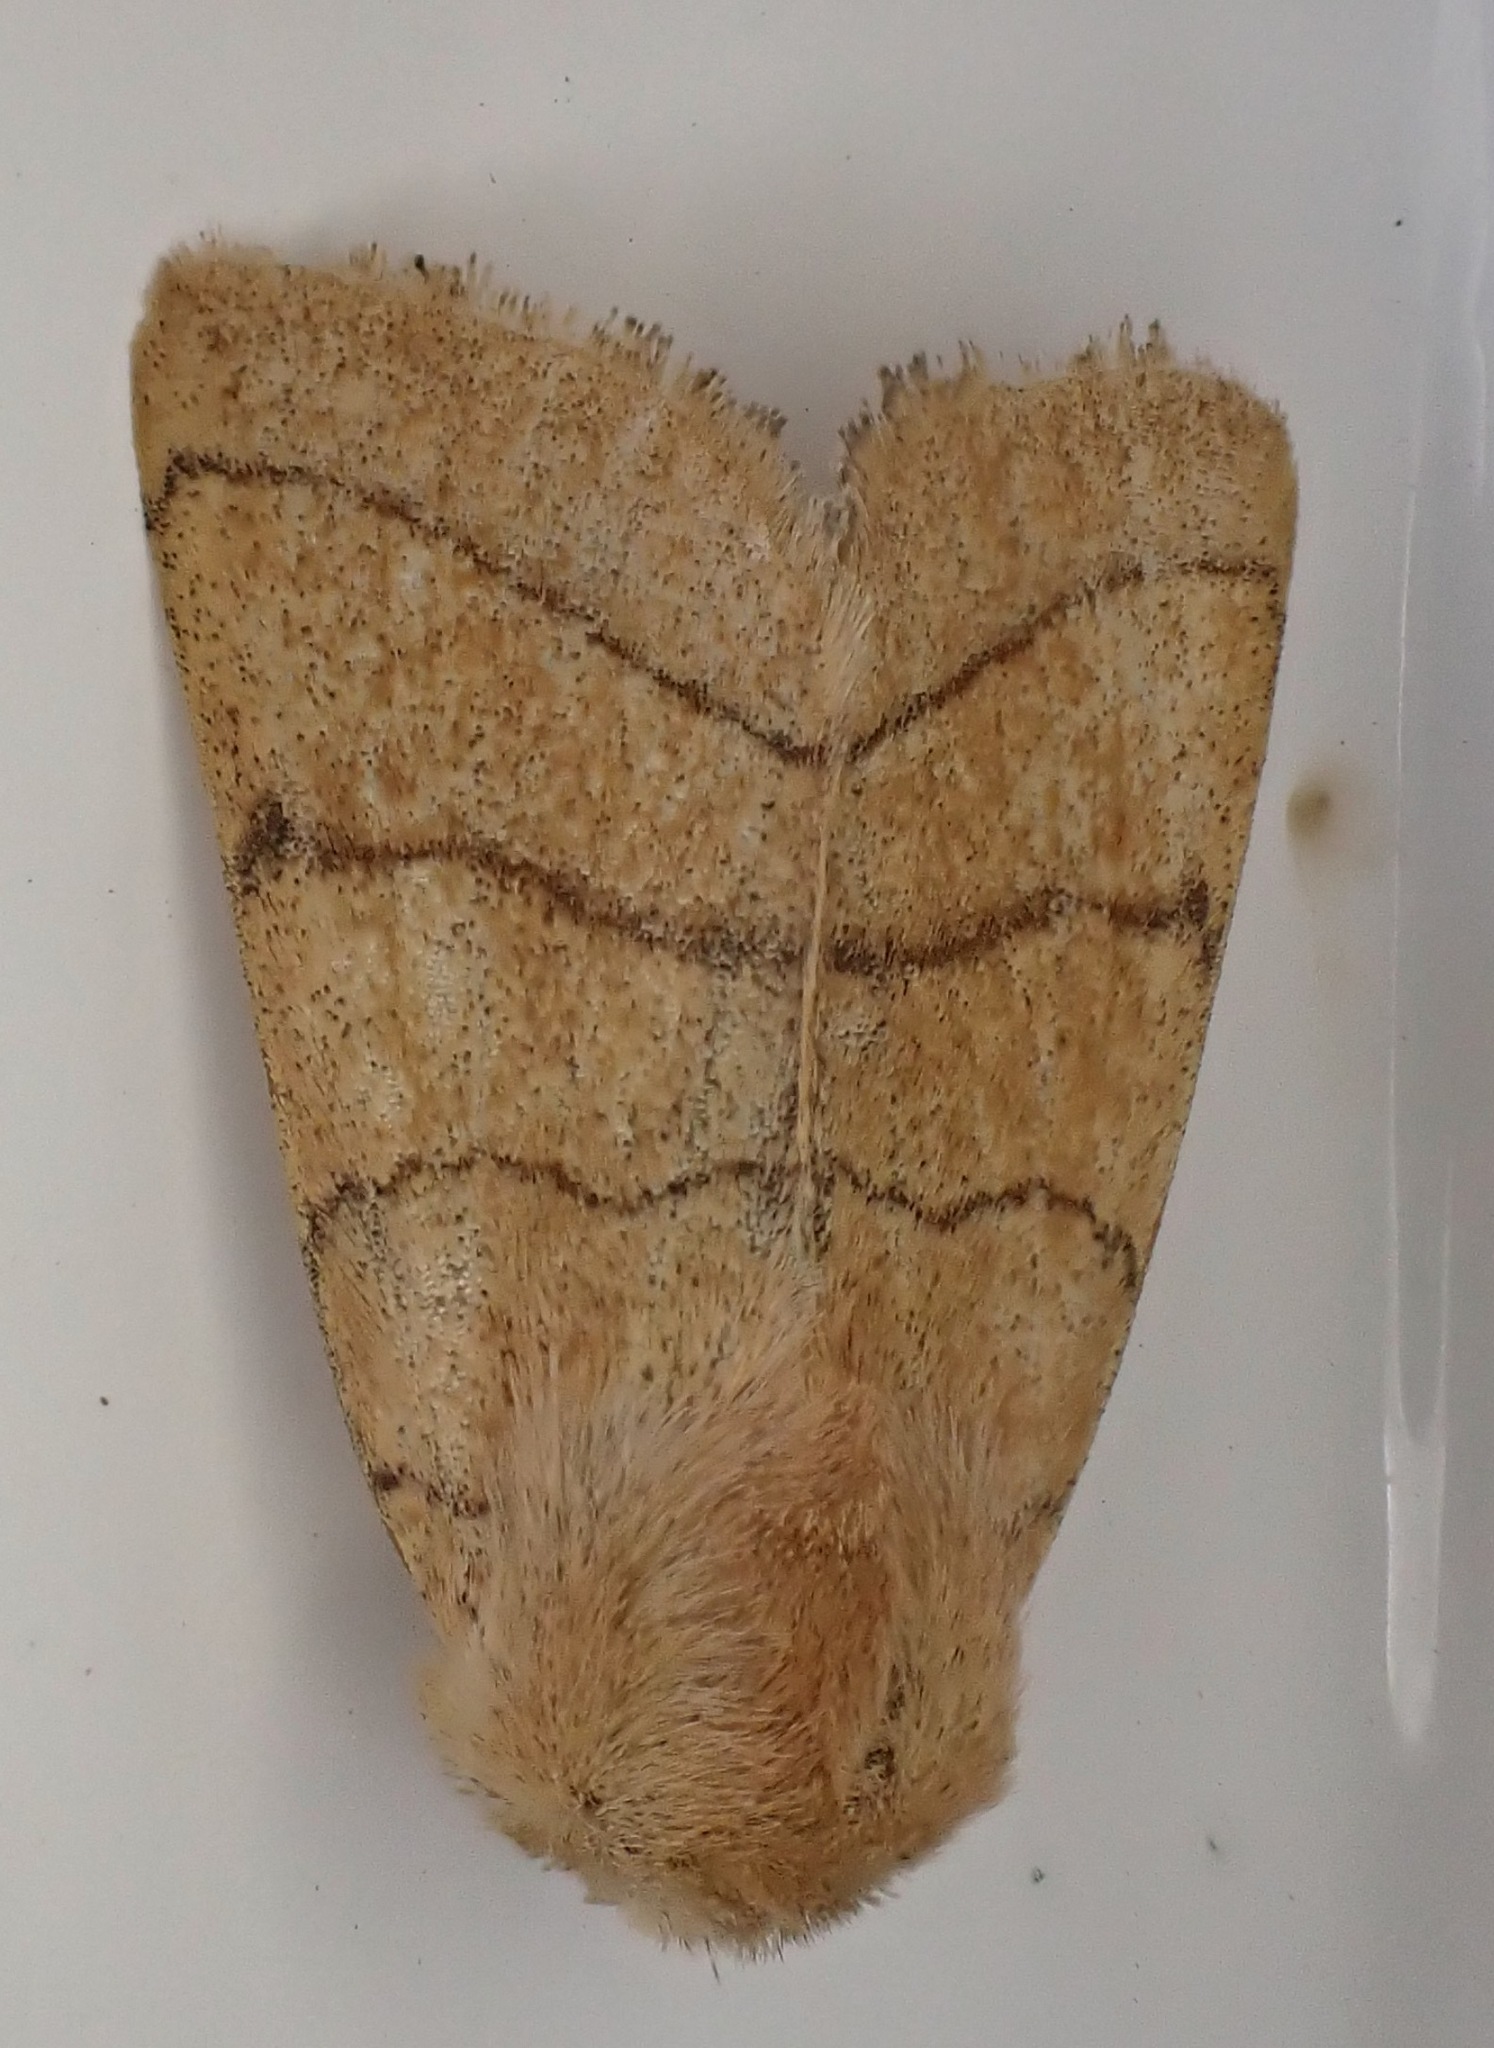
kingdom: Animalia
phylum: Arthropoda
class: Insecta
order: Lepidoptera
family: Noctuidae
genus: Charanyca
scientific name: Charanyca trigrammica
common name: Treble lines
